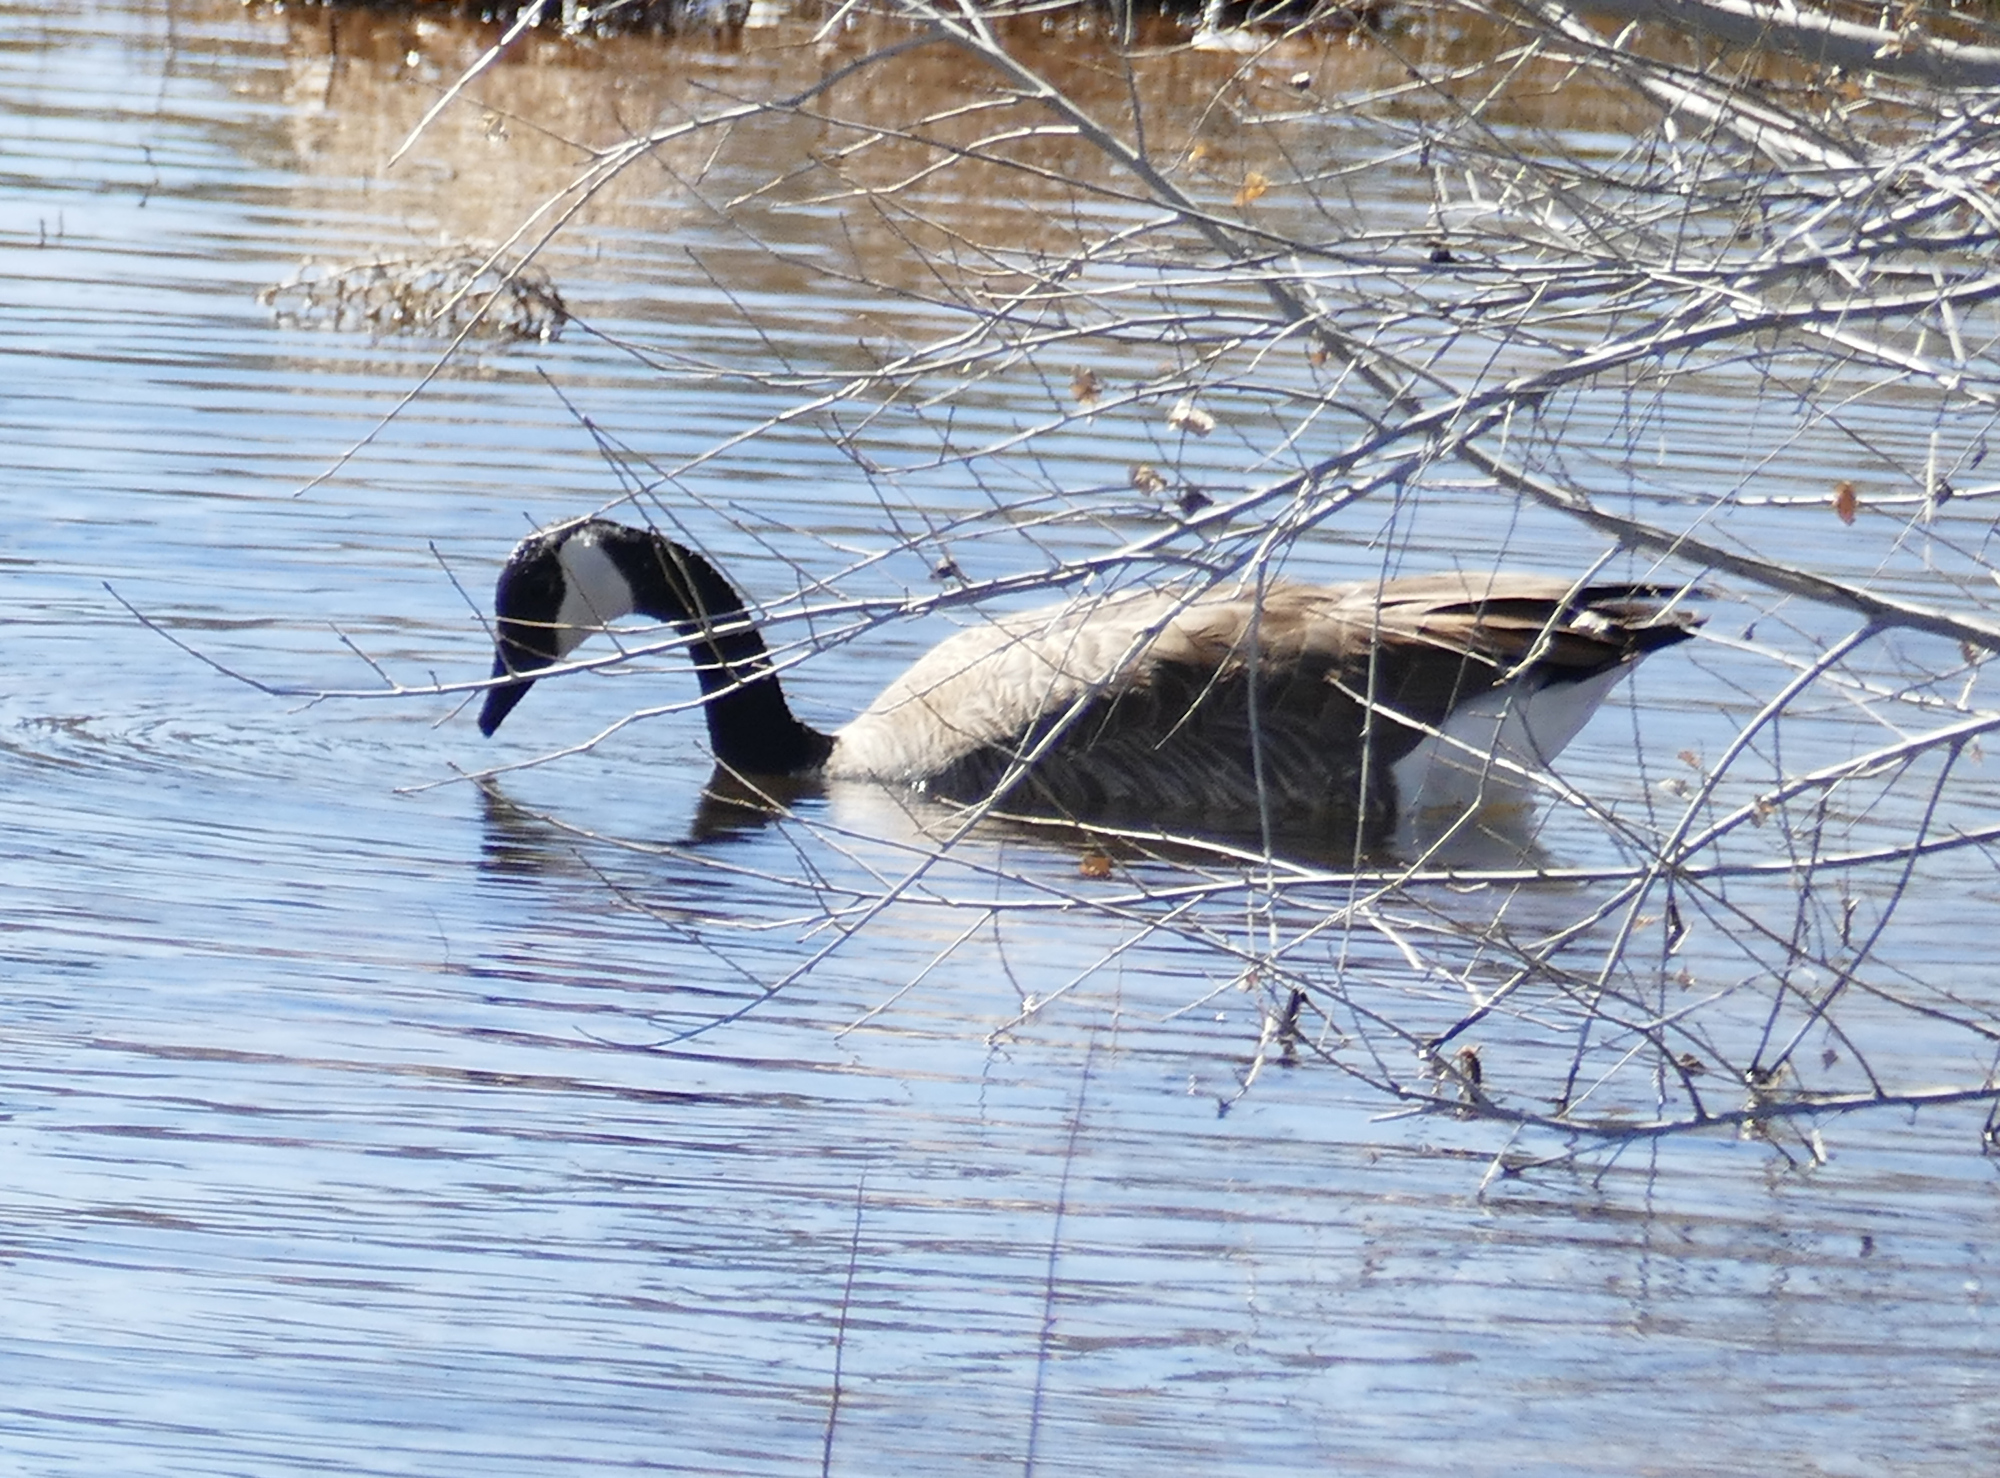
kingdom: Animalia
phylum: Chordata
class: Aves
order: Anseriformes
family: Anatidae
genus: Branta
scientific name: Branta canadensis
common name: Canada goose
